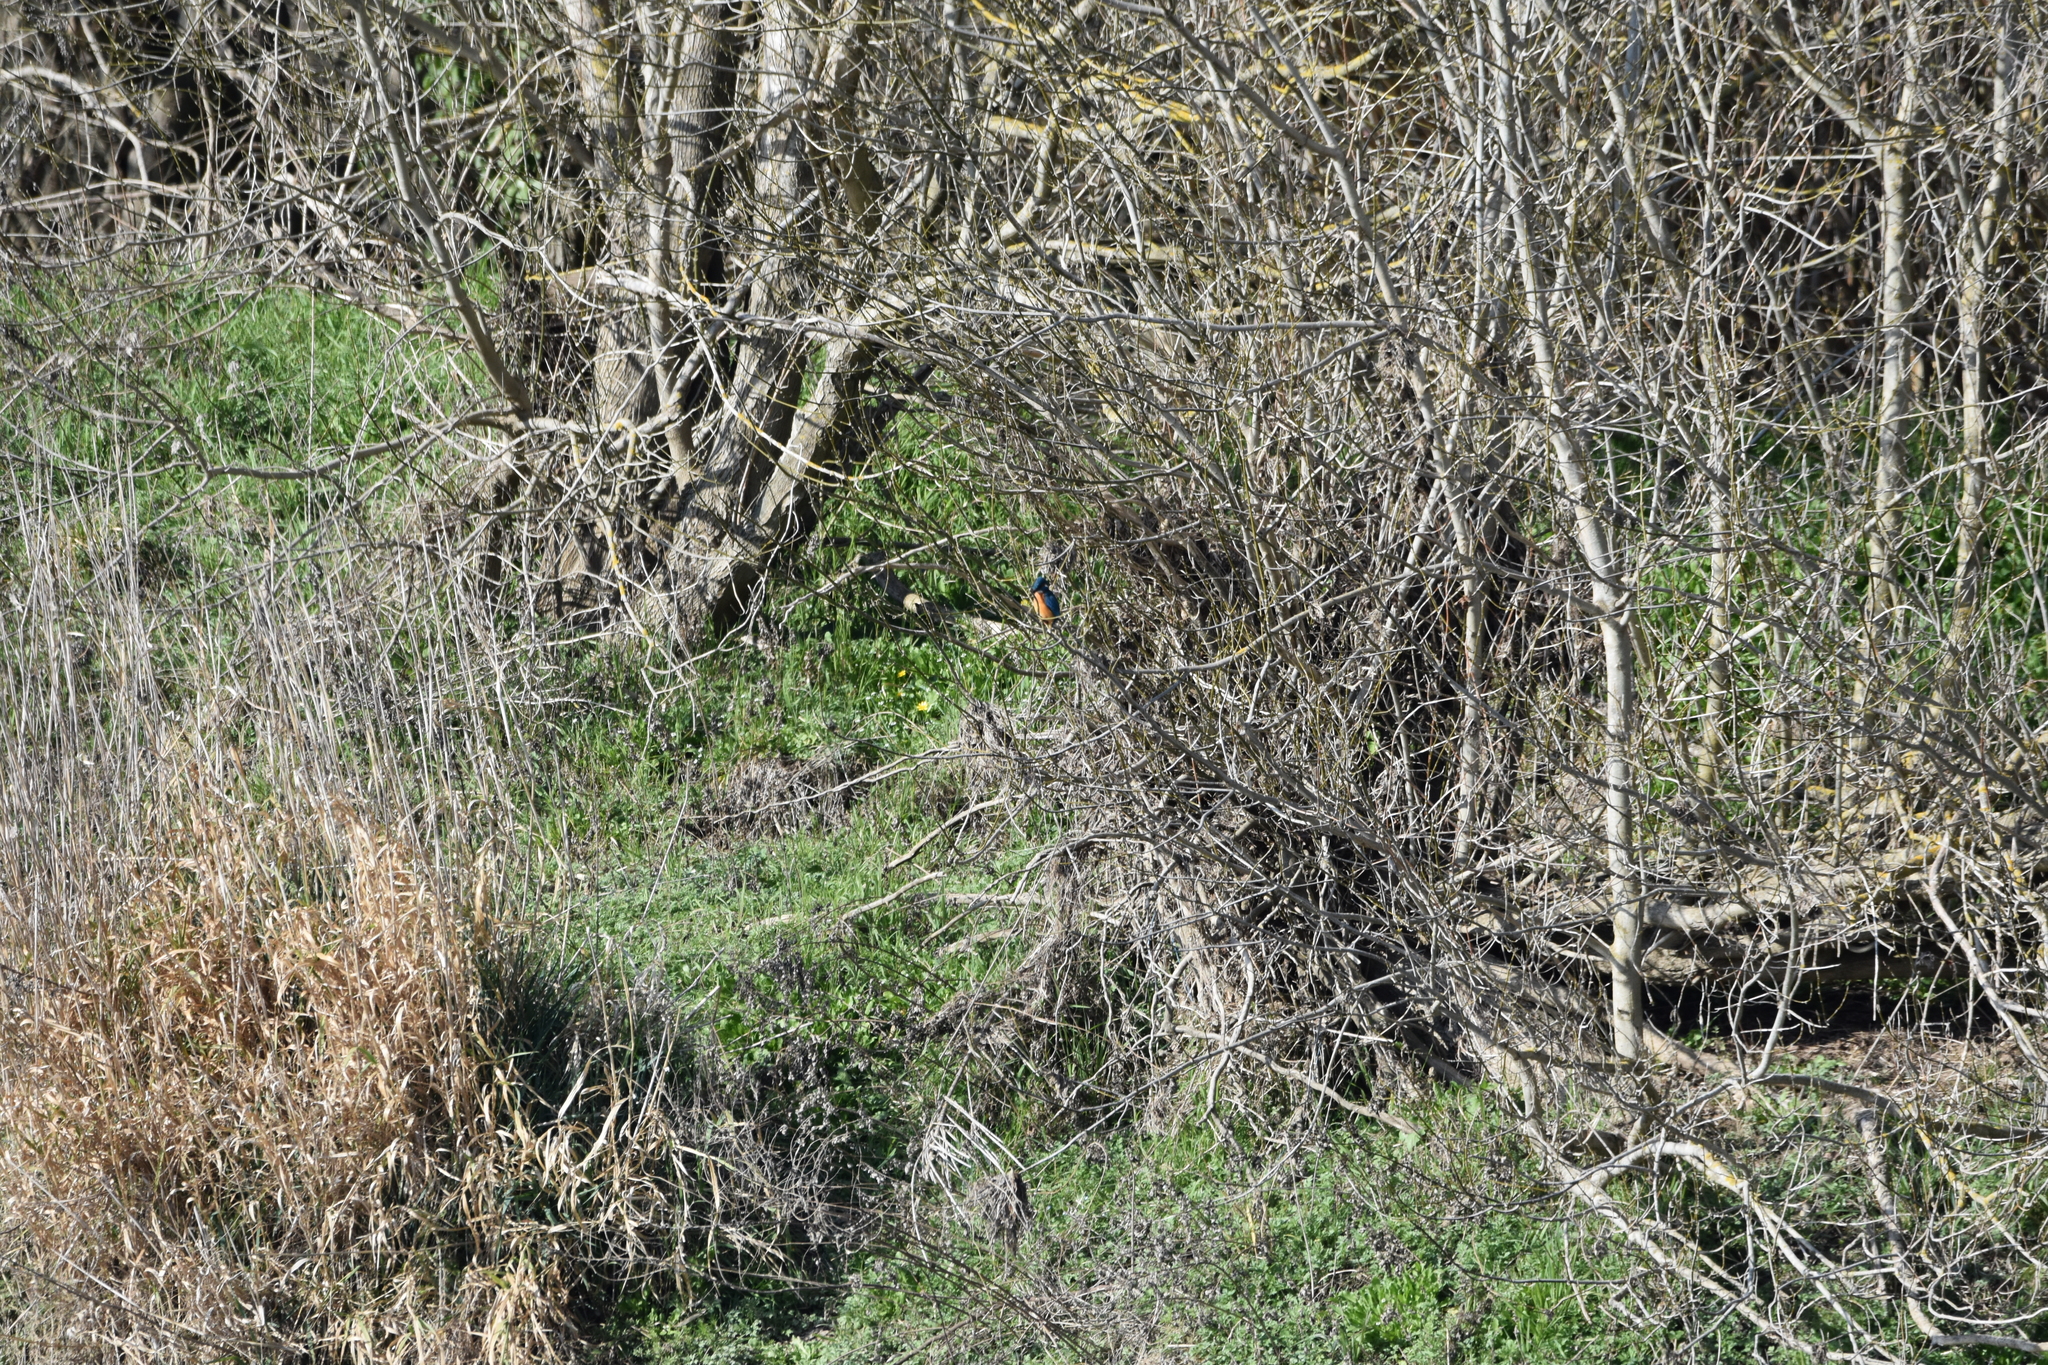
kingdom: Animalia
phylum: Chordata
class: Aves
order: Coraciiformes
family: Alcedinidae
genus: Alcedo
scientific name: Alcedo atthis
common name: Common kingfisher
